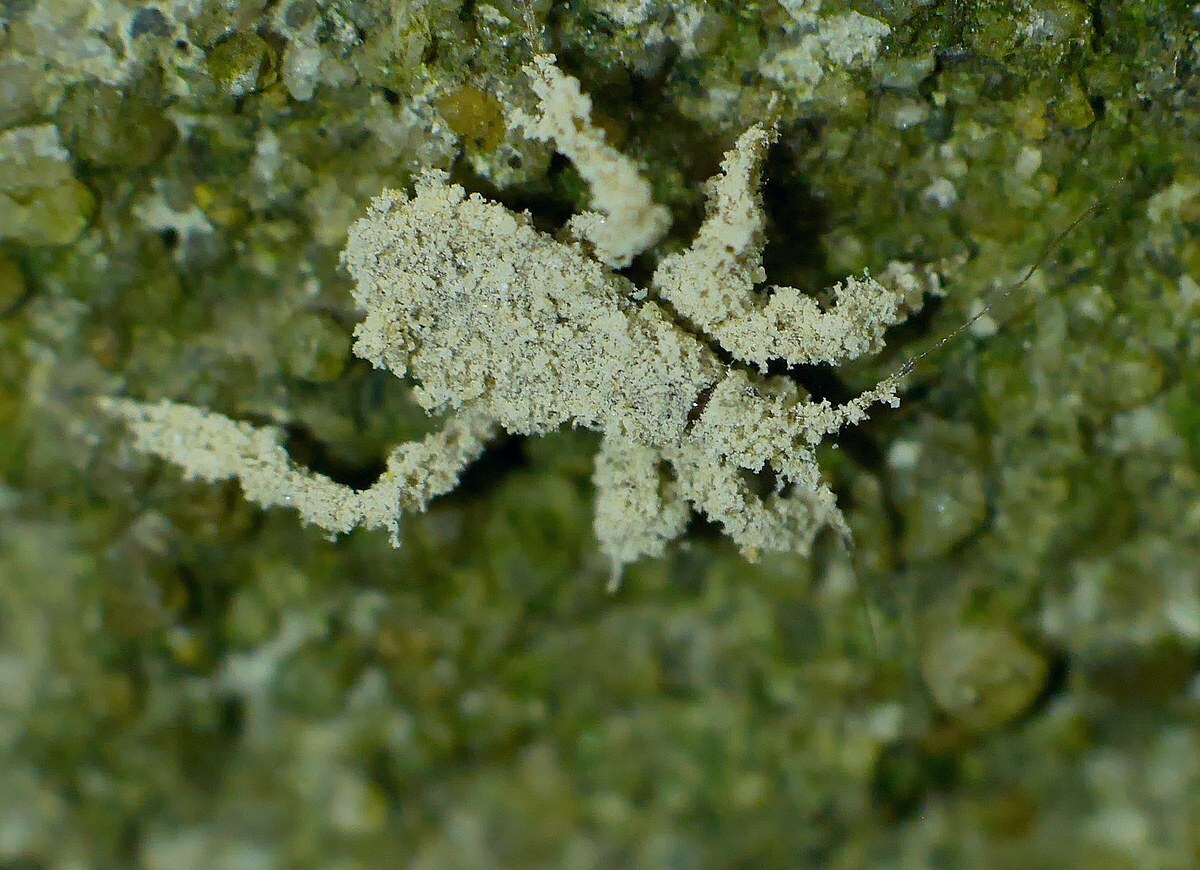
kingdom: Animalia
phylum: Arthropoda
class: Insecta
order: Hemiptera
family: Reduviidae
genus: Reduvius
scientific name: Reduvius personatus
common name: Masked hunter
